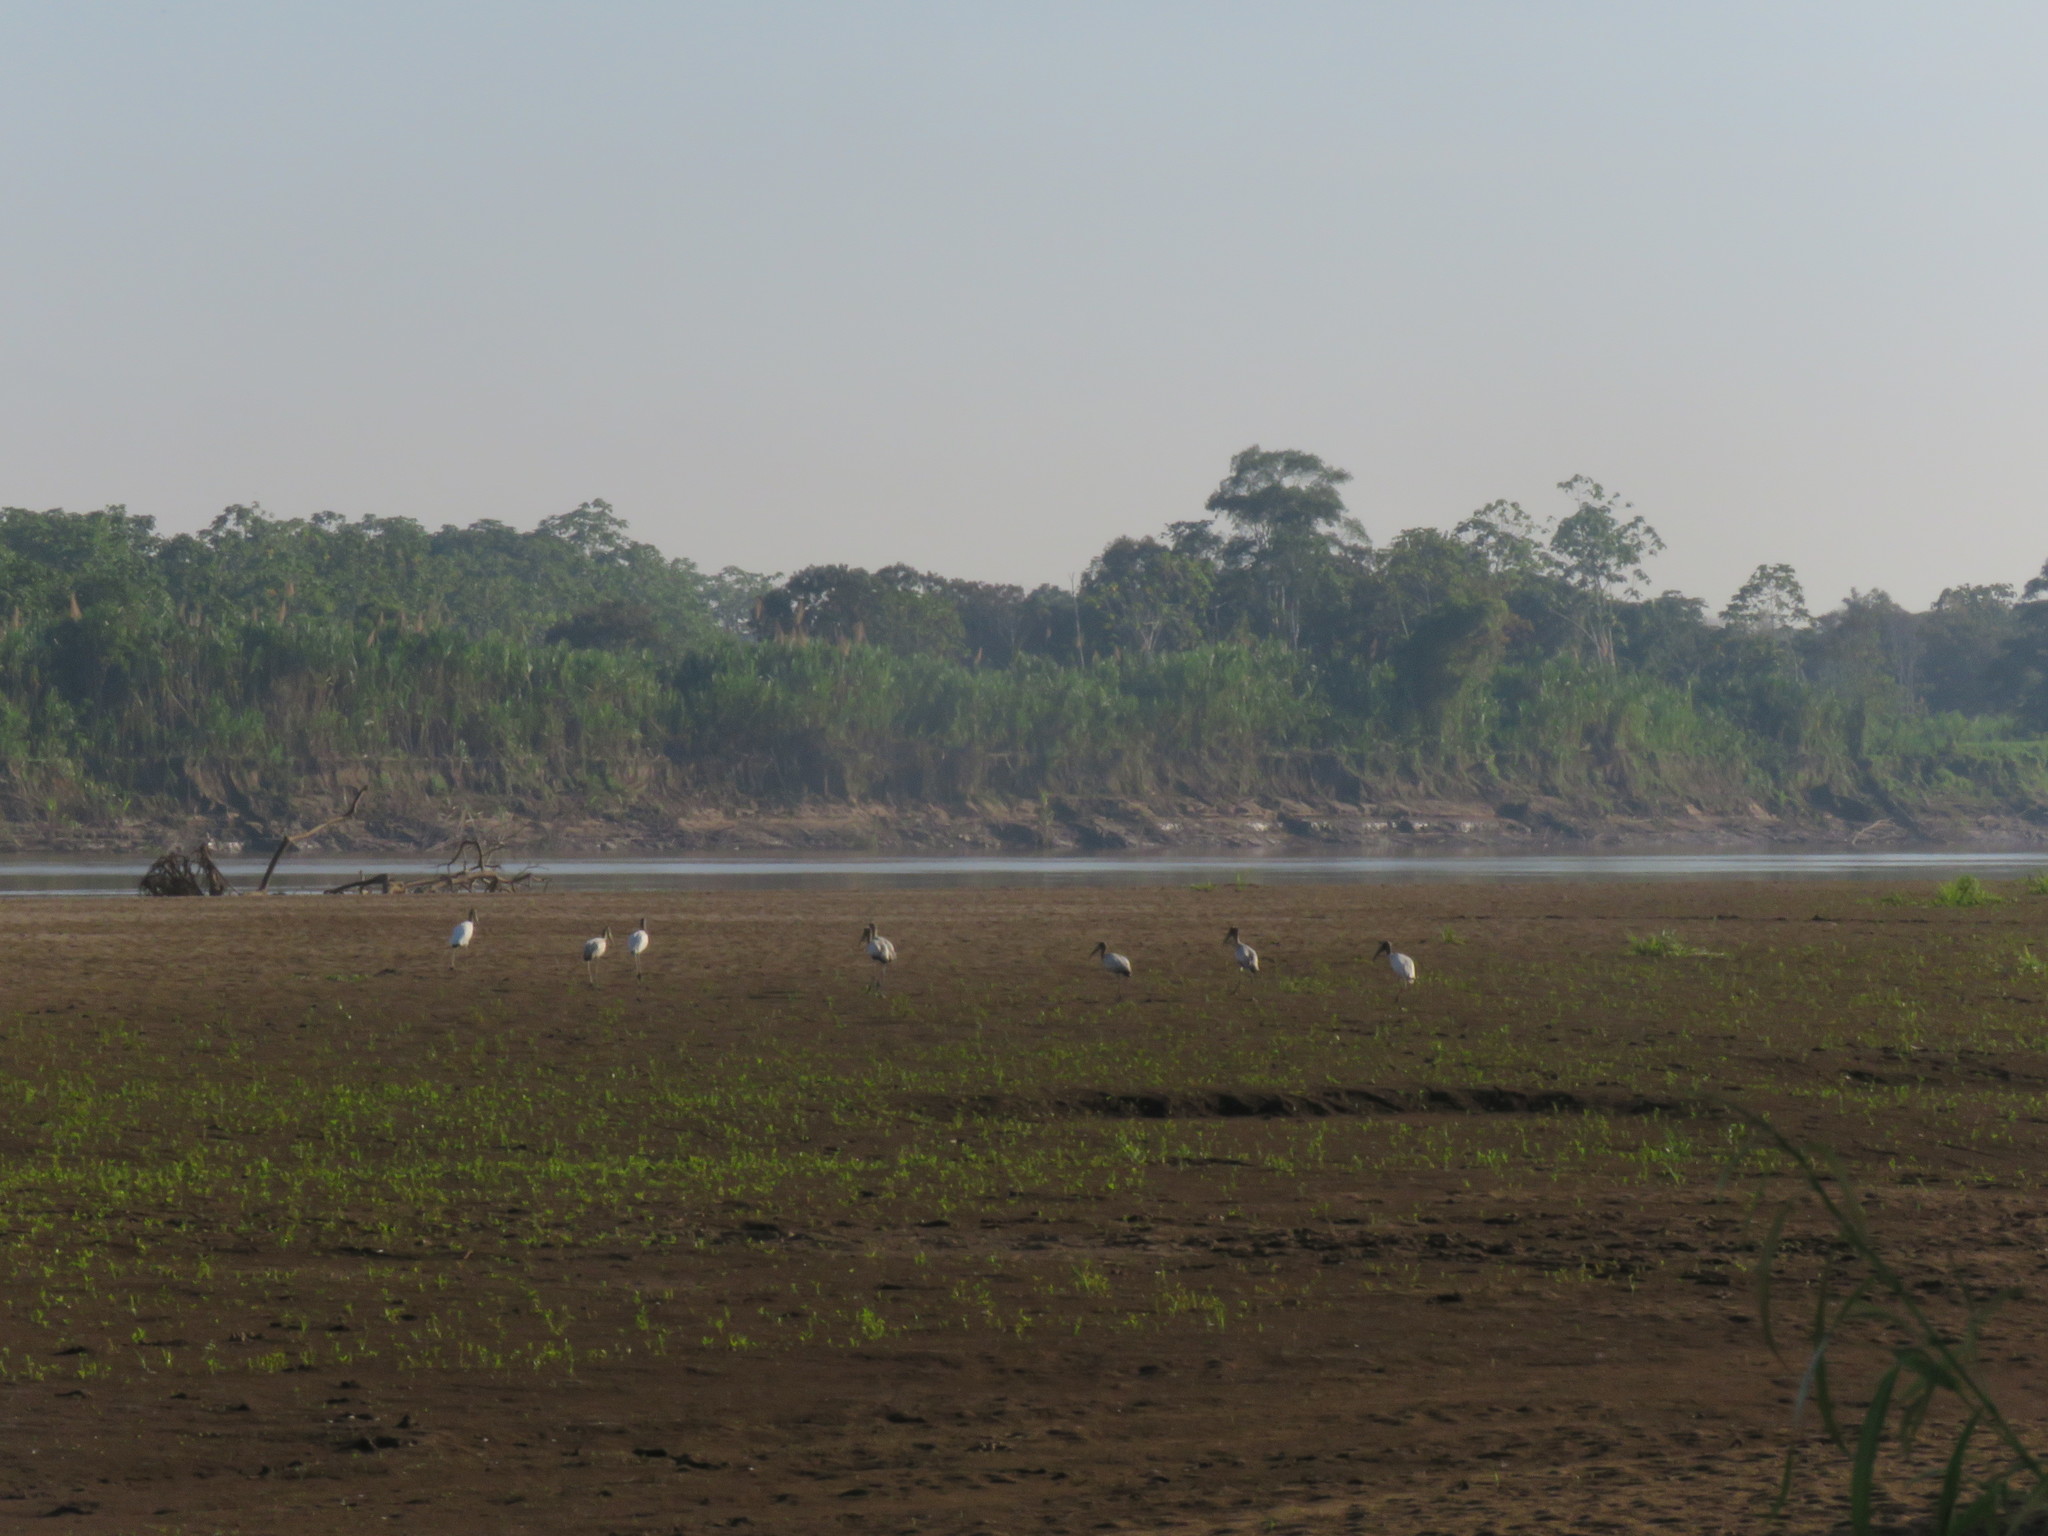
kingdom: Animalia
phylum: Chordata
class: Aves
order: Ciconiiformes
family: Ciconiidae
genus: Mycteria
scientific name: Mycteria americana
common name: Wood stork
